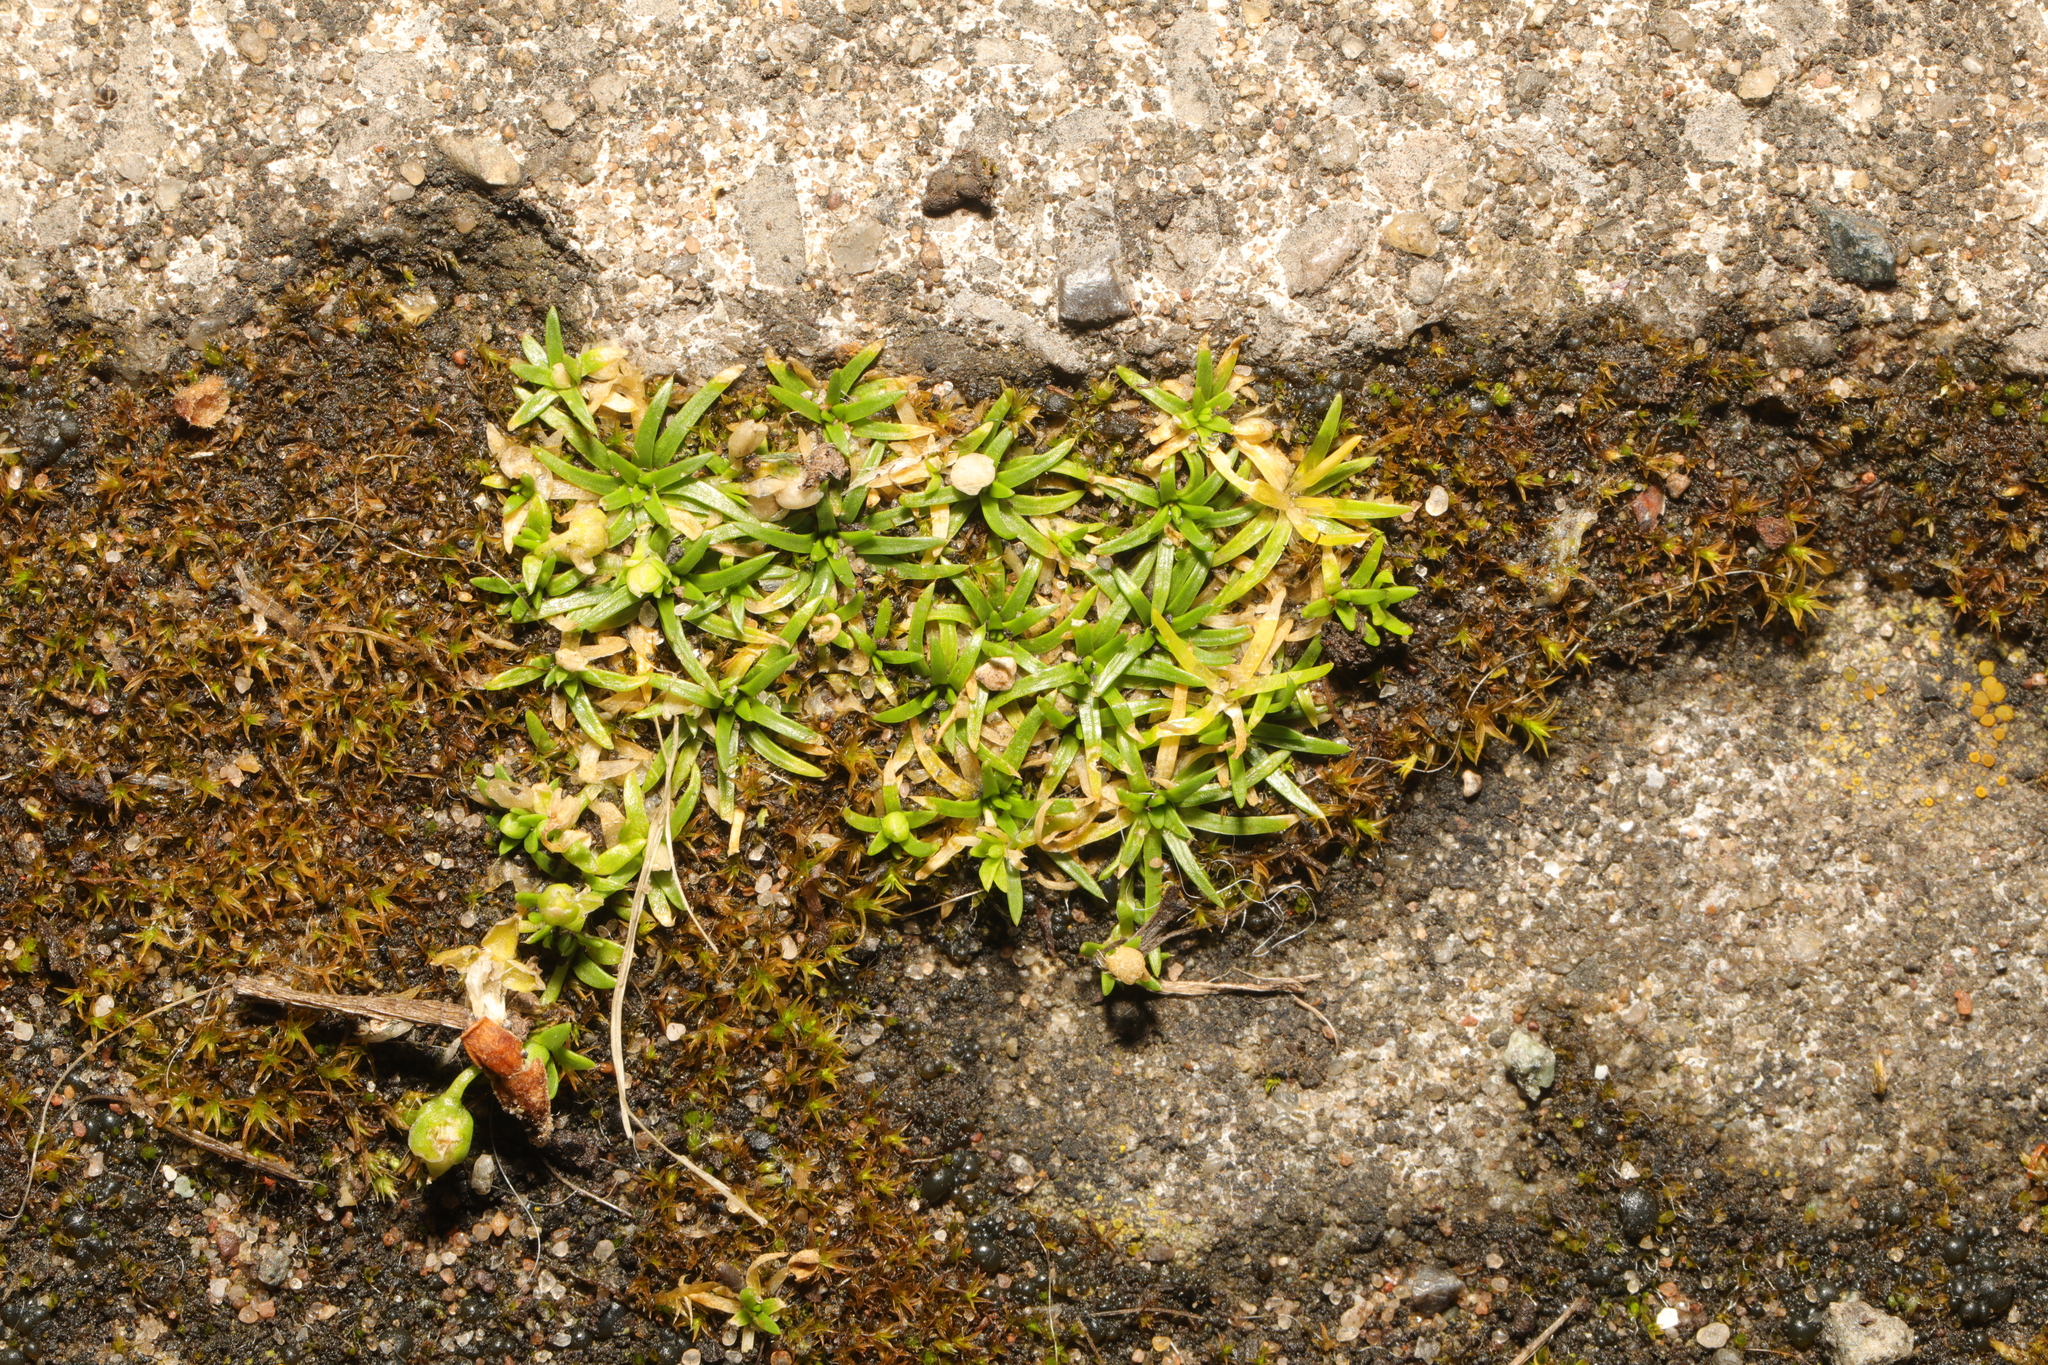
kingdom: Plantae
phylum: Tracheophyta
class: Magnoliopsida
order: Caryophyllales
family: Caryophyllaceae
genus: Sagina
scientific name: Sagina procumbens
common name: Procumbent pearlwort
